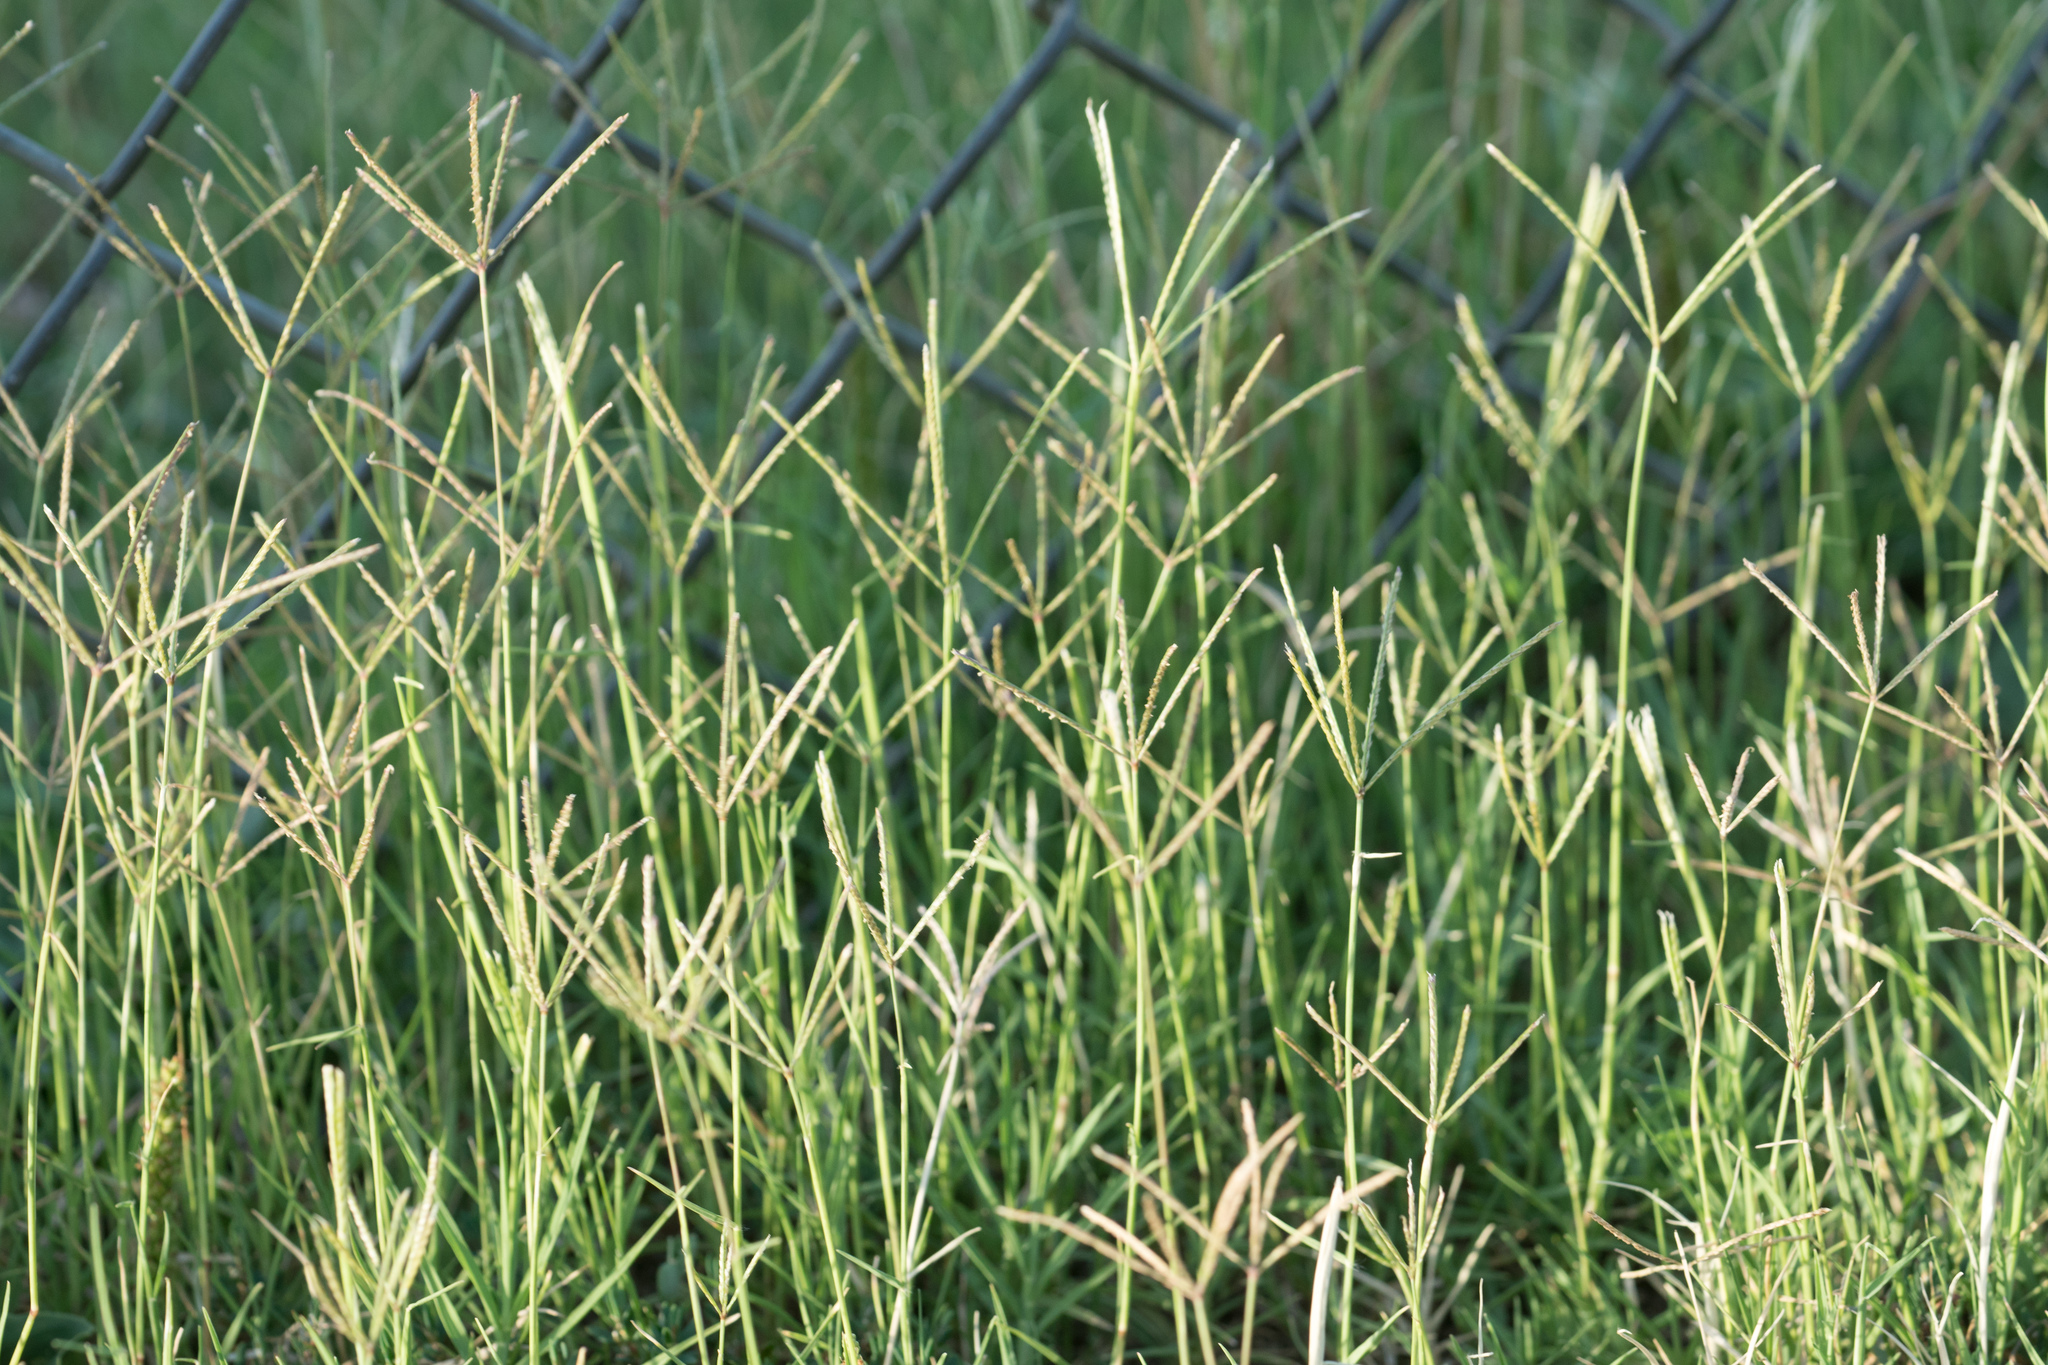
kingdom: Plantae
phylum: Tracheophyta
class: Liliopsida
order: Poales
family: Poaceae
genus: Cynodon
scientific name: Cynodon dactylon
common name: Bermuda grass
